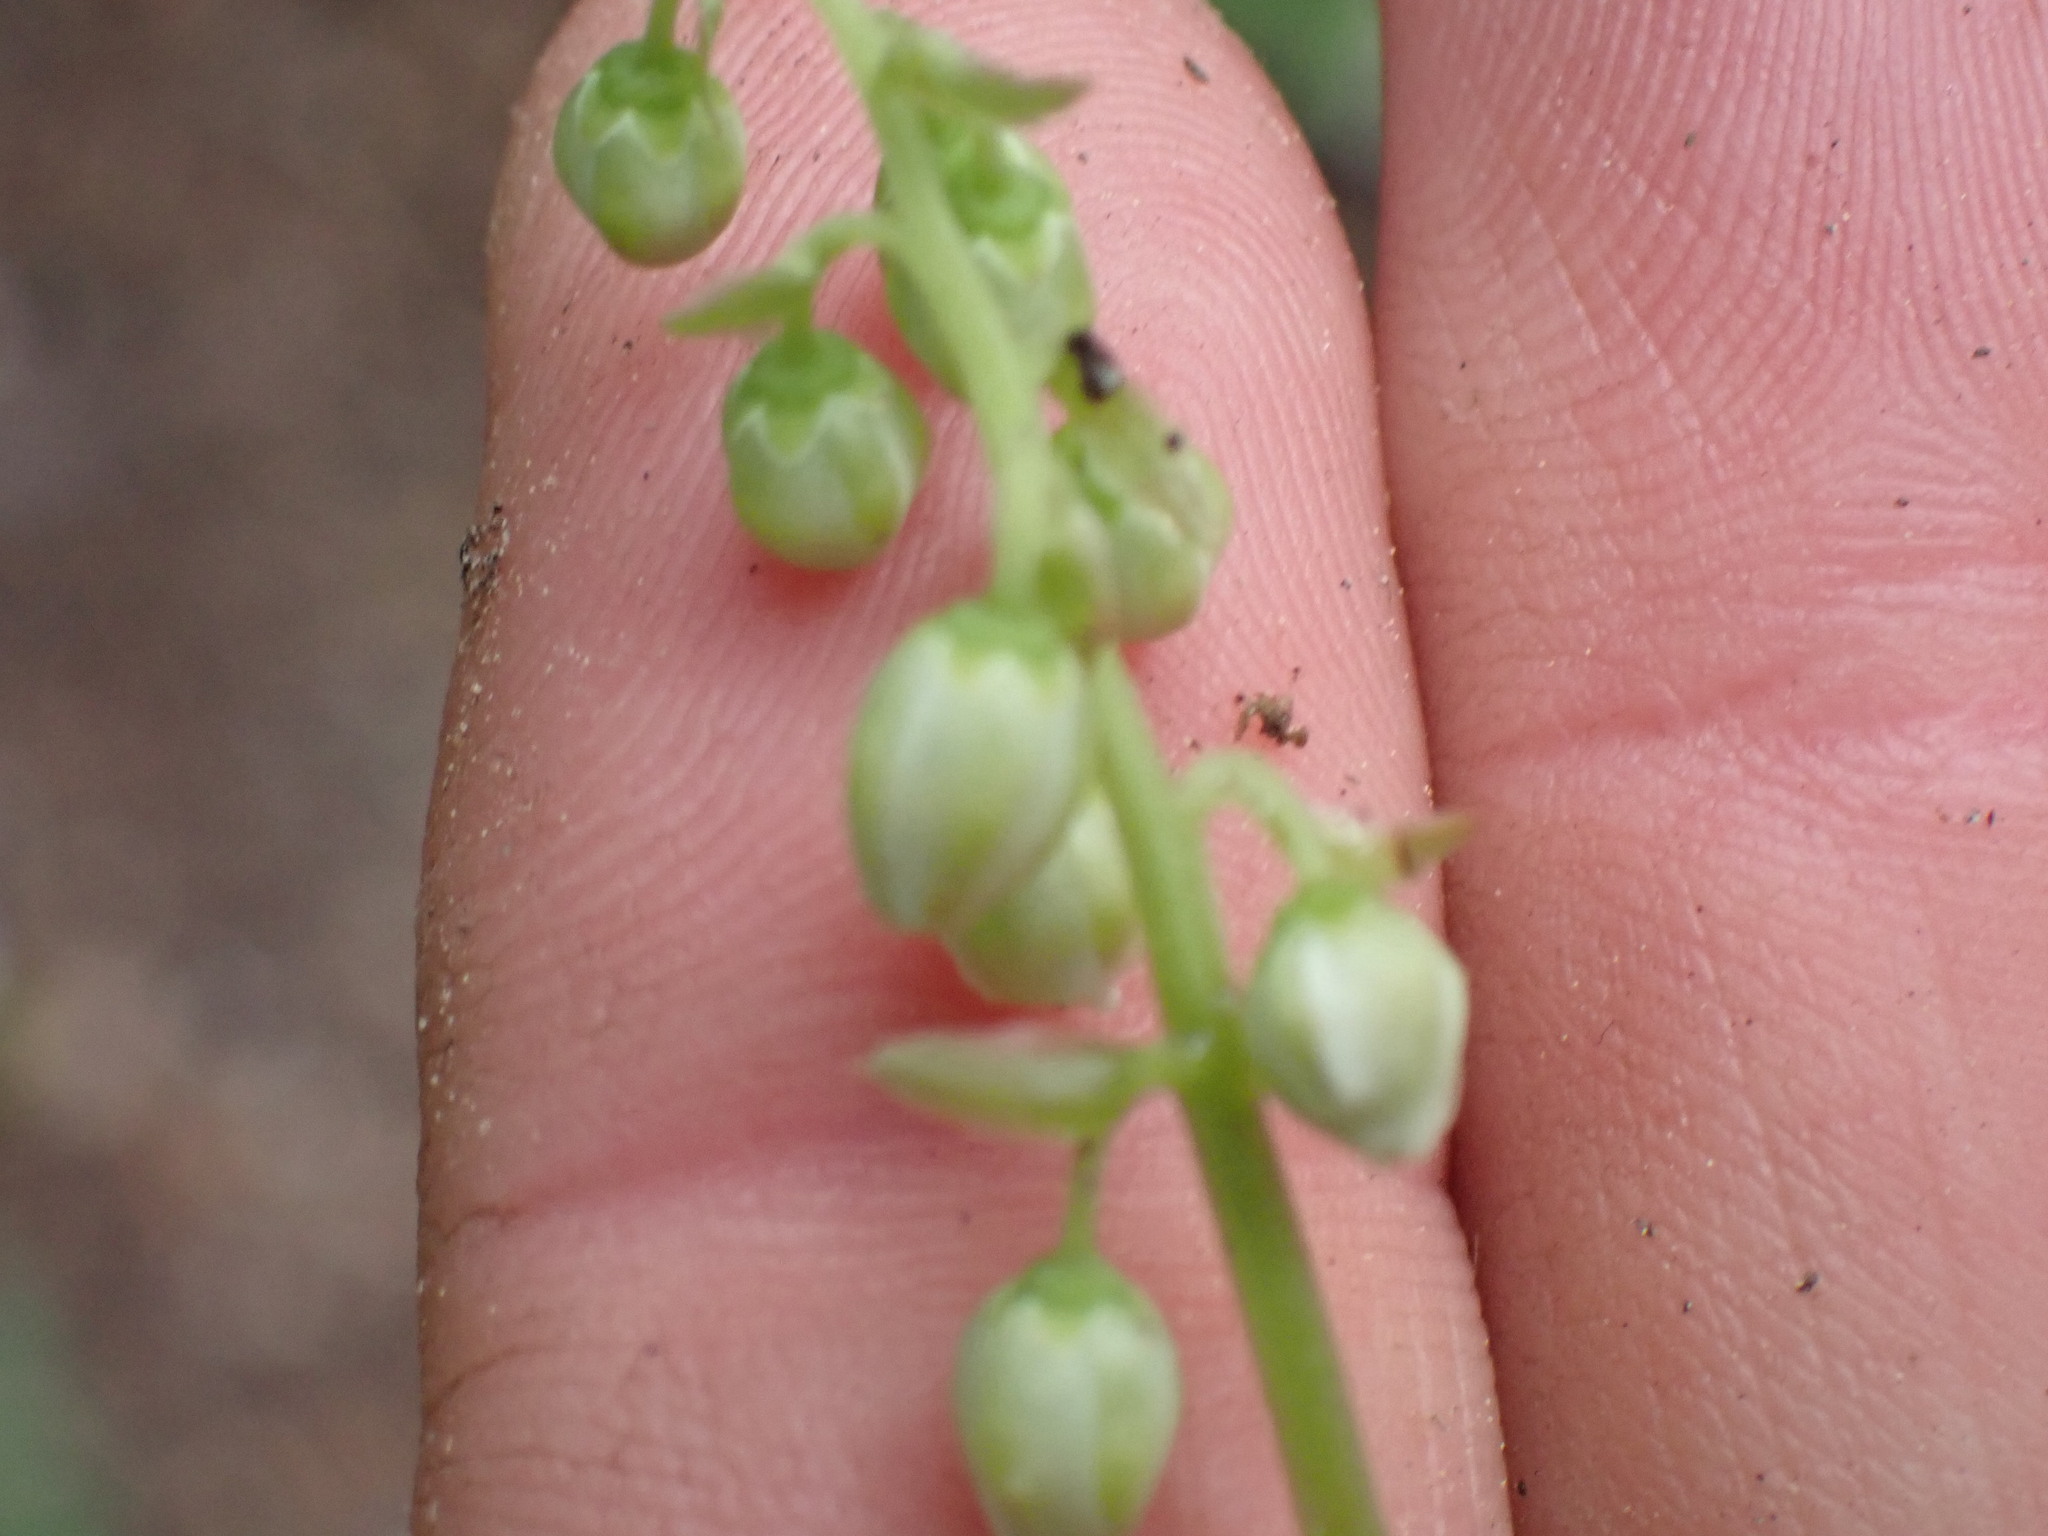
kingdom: Plantae
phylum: Tracheophyta
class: Magnoliopsida
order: Ericales
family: Ericaceae
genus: Orthilia
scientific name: Orthilia secunda
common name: One-sided orthilia
